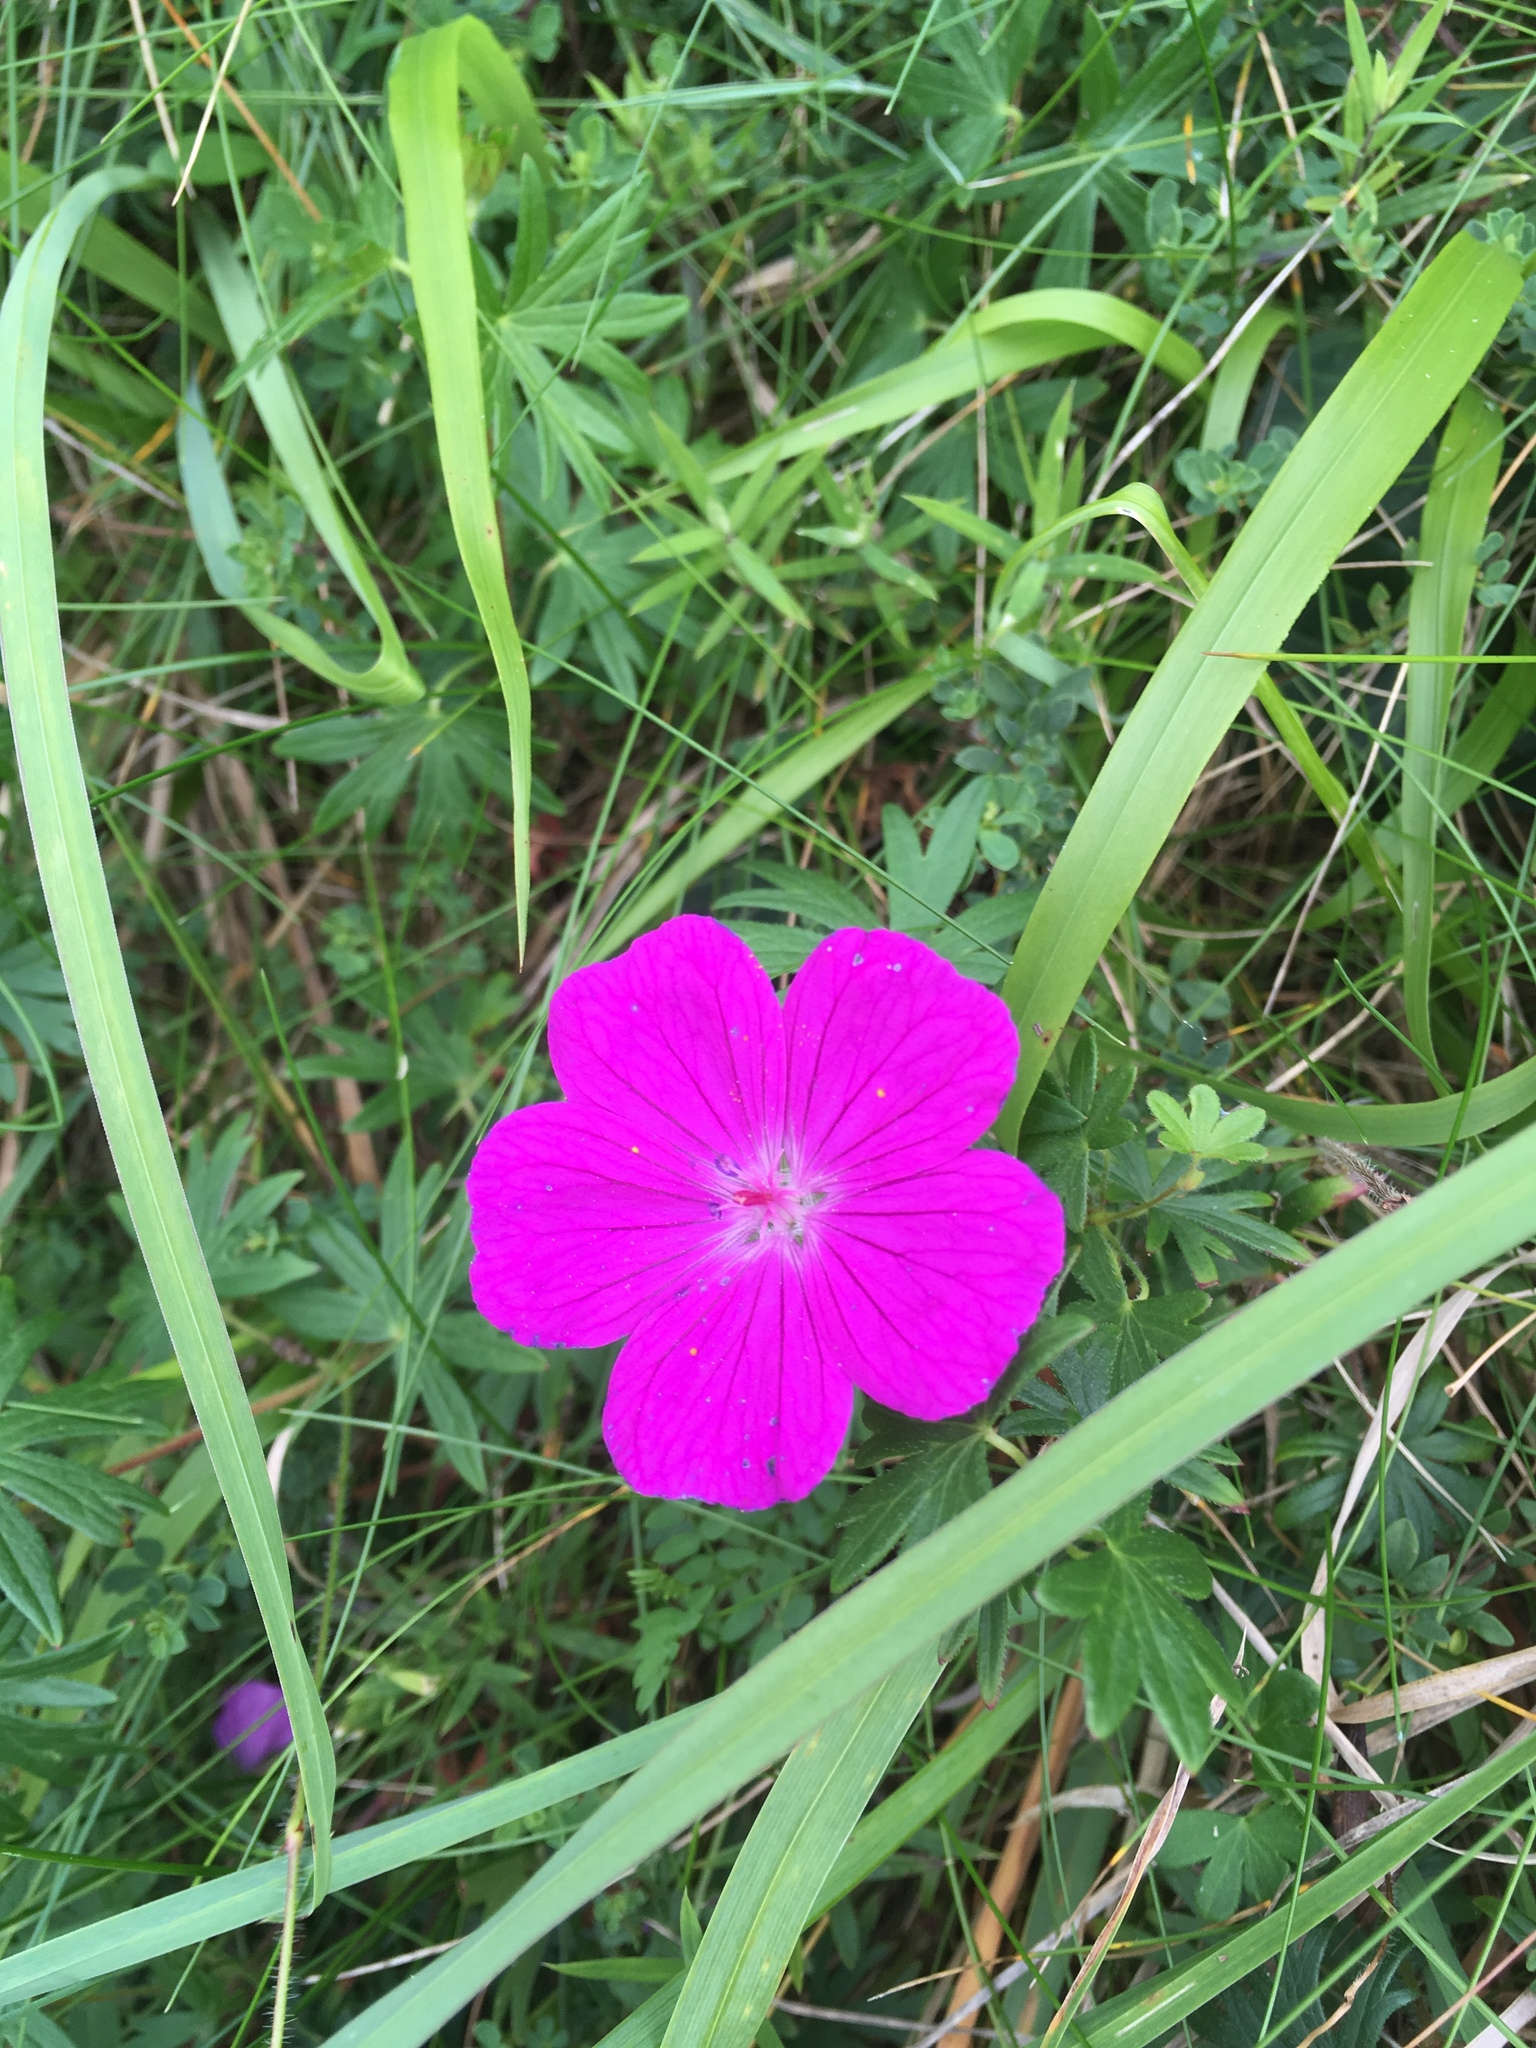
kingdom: Plantae
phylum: Tracheophyta
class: Magnoliopsida
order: Geraniales
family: Geraniaceae
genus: Geranium
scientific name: Geranium sanguineum
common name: Bloody crane's-bill
